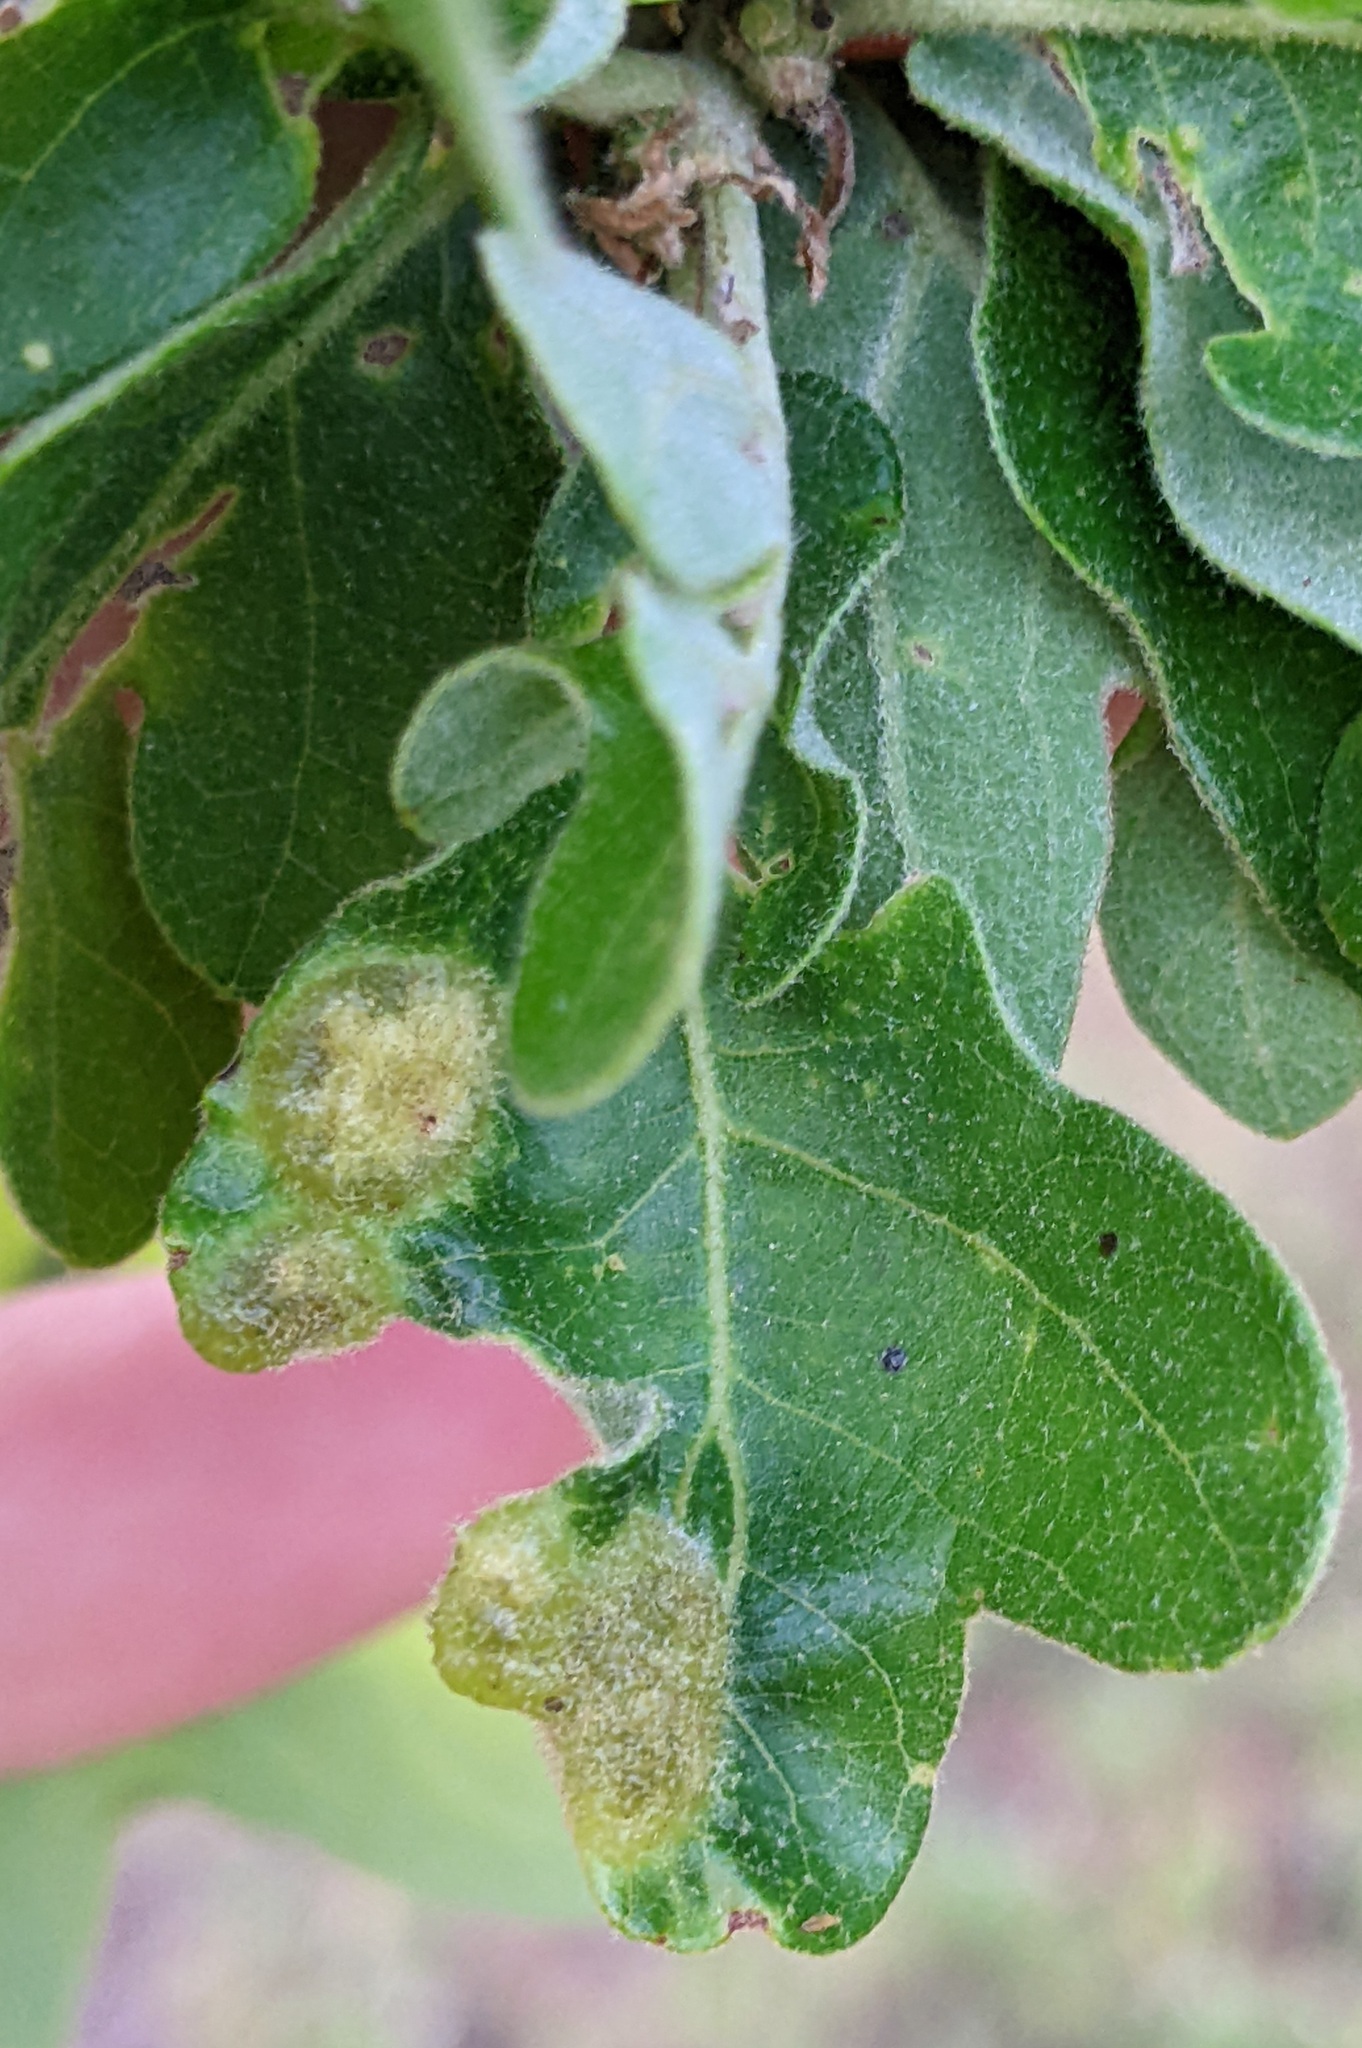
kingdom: Animalia
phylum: Arthropoda
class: Insecta
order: Hymenoptera
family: Cynipidae
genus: Neuroterus
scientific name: Neuroterus quercusirregularis
